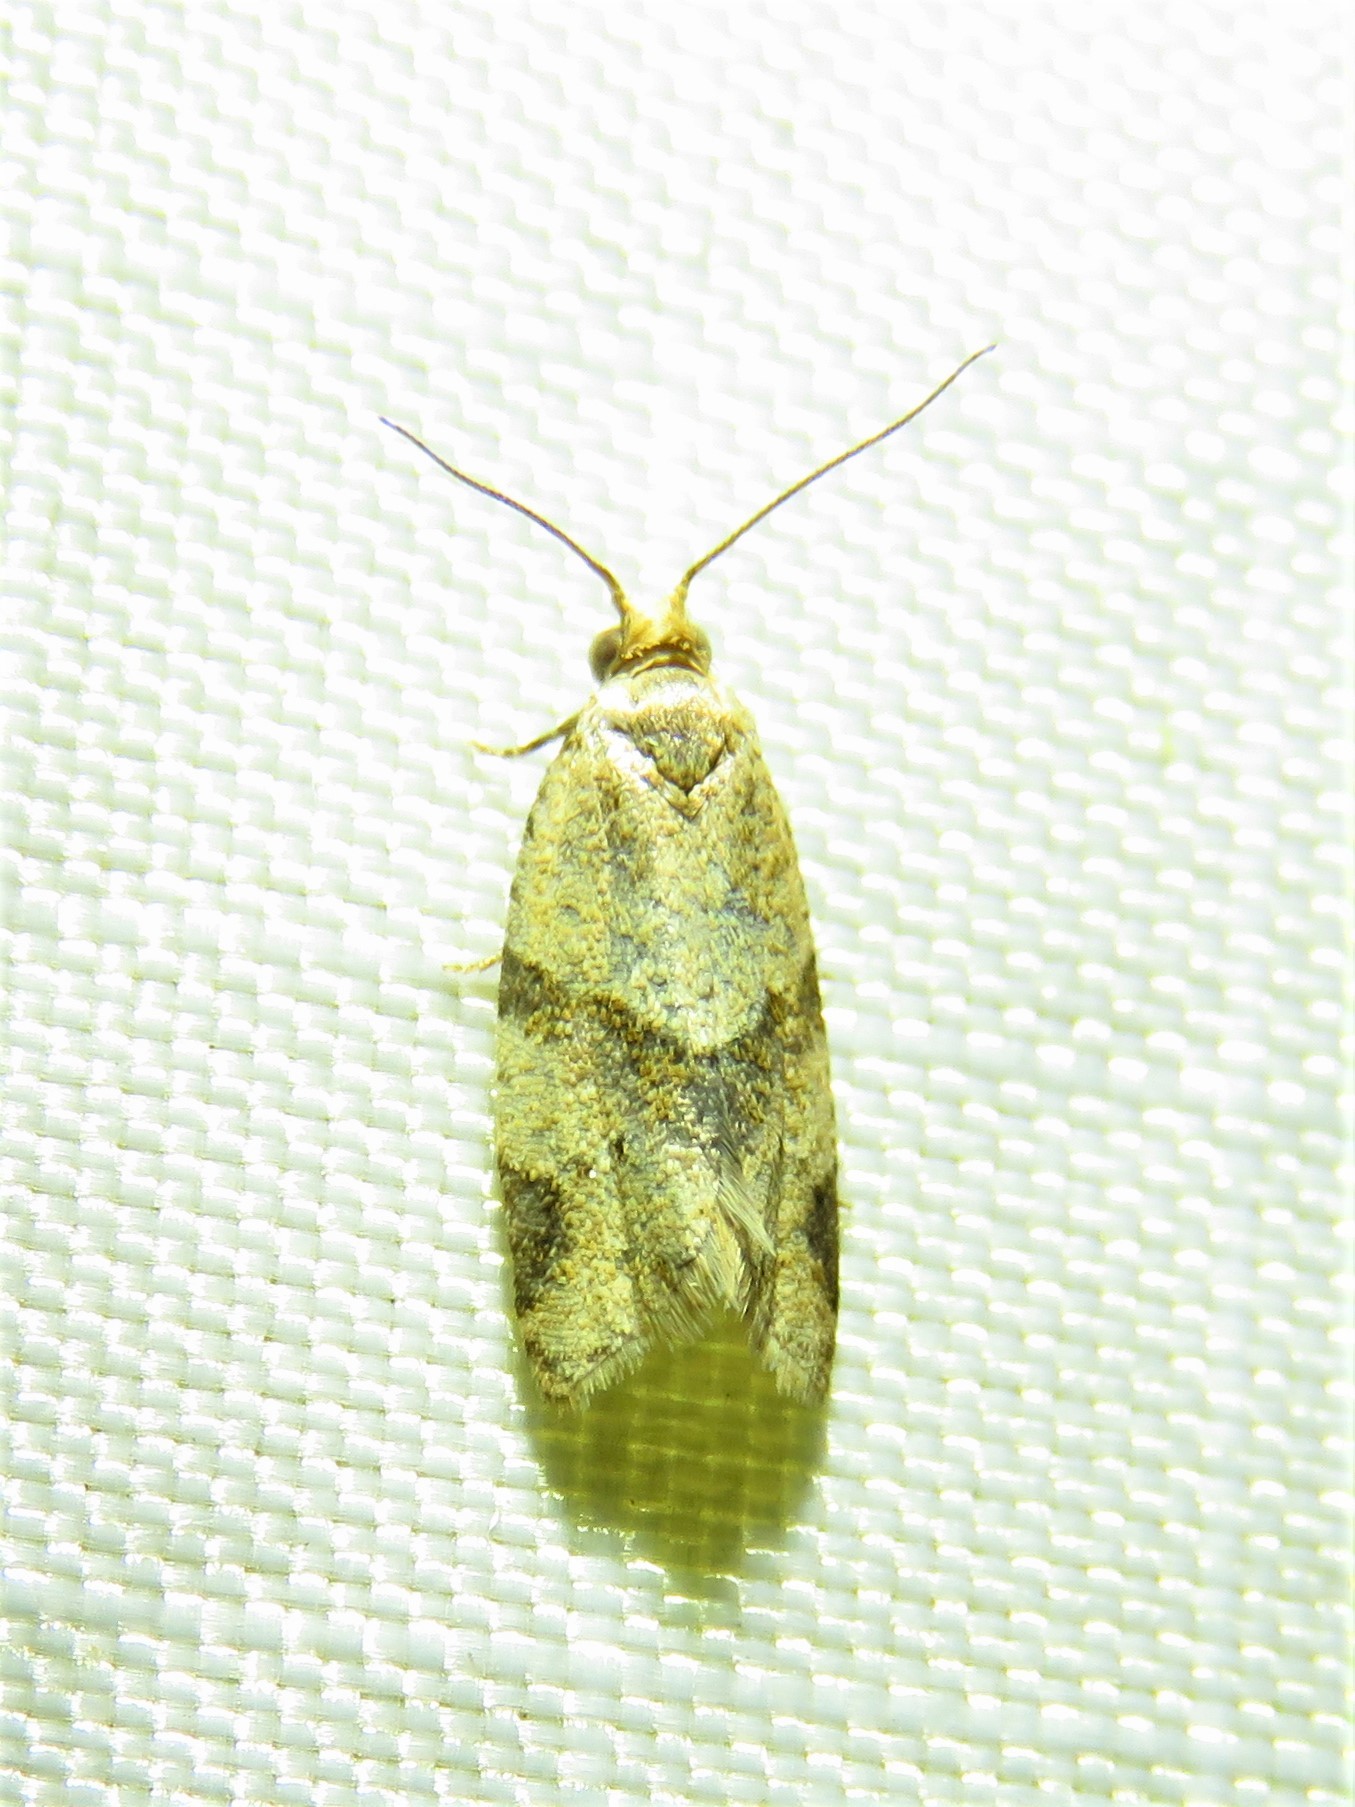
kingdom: Animalia
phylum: Arthropoda
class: Insecta
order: Lepidoptera
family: Tortricidae
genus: Clepsis
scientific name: Clepsis peritana
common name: Garden tortrix
